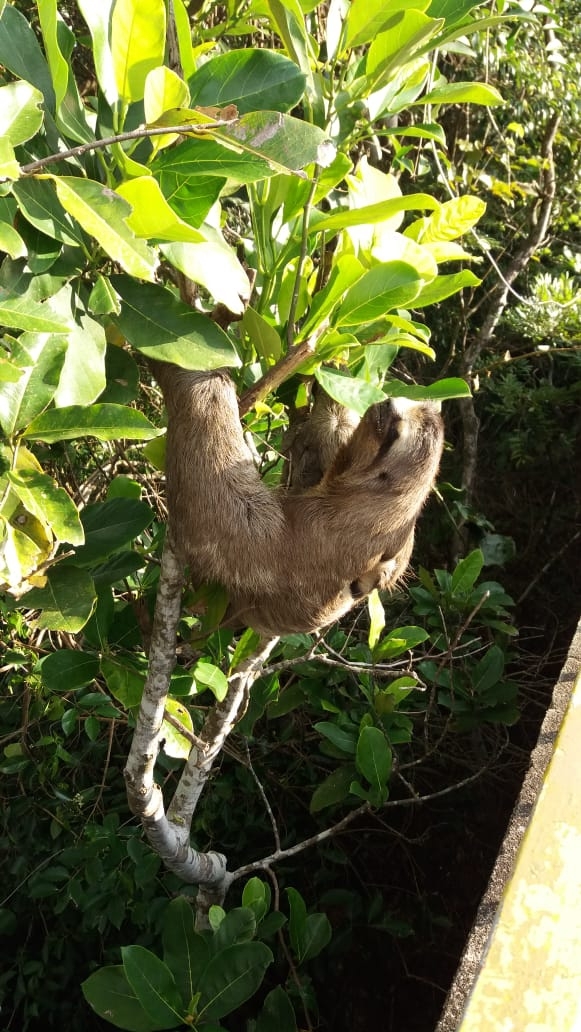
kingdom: Animalia
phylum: Chordata
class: Mammalia
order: Pilosa
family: Bradypodidae
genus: Bradypus
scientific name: Bradypus variegatus
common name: Brown-throated three-toed sloth
